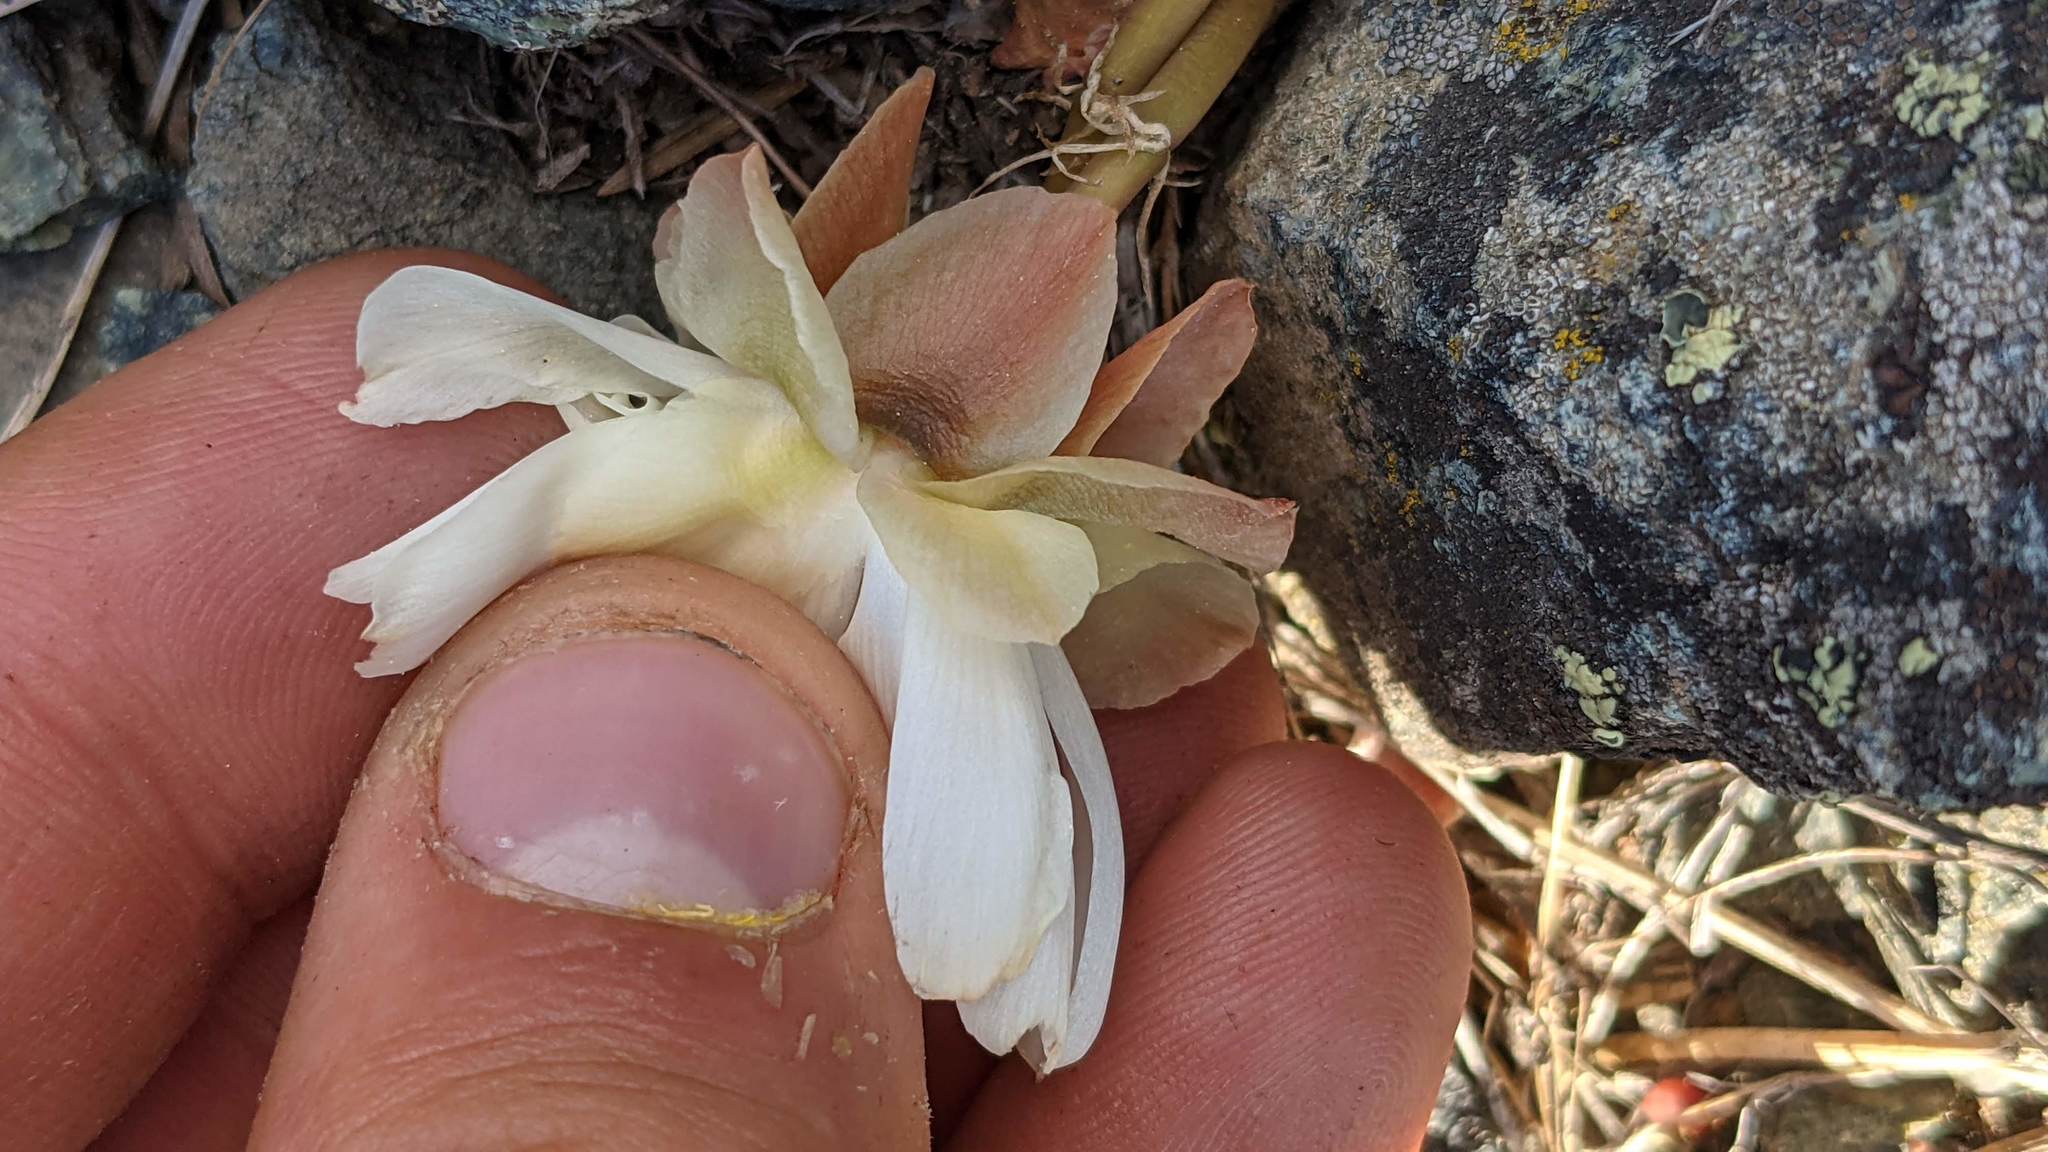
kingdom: Plantae
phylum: Tracheophyta
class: Magnoliopsida
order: Caryophyllales
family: Montiaceae
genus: Lewisia
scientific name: Lewisia rediviva
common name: Bitter-root
